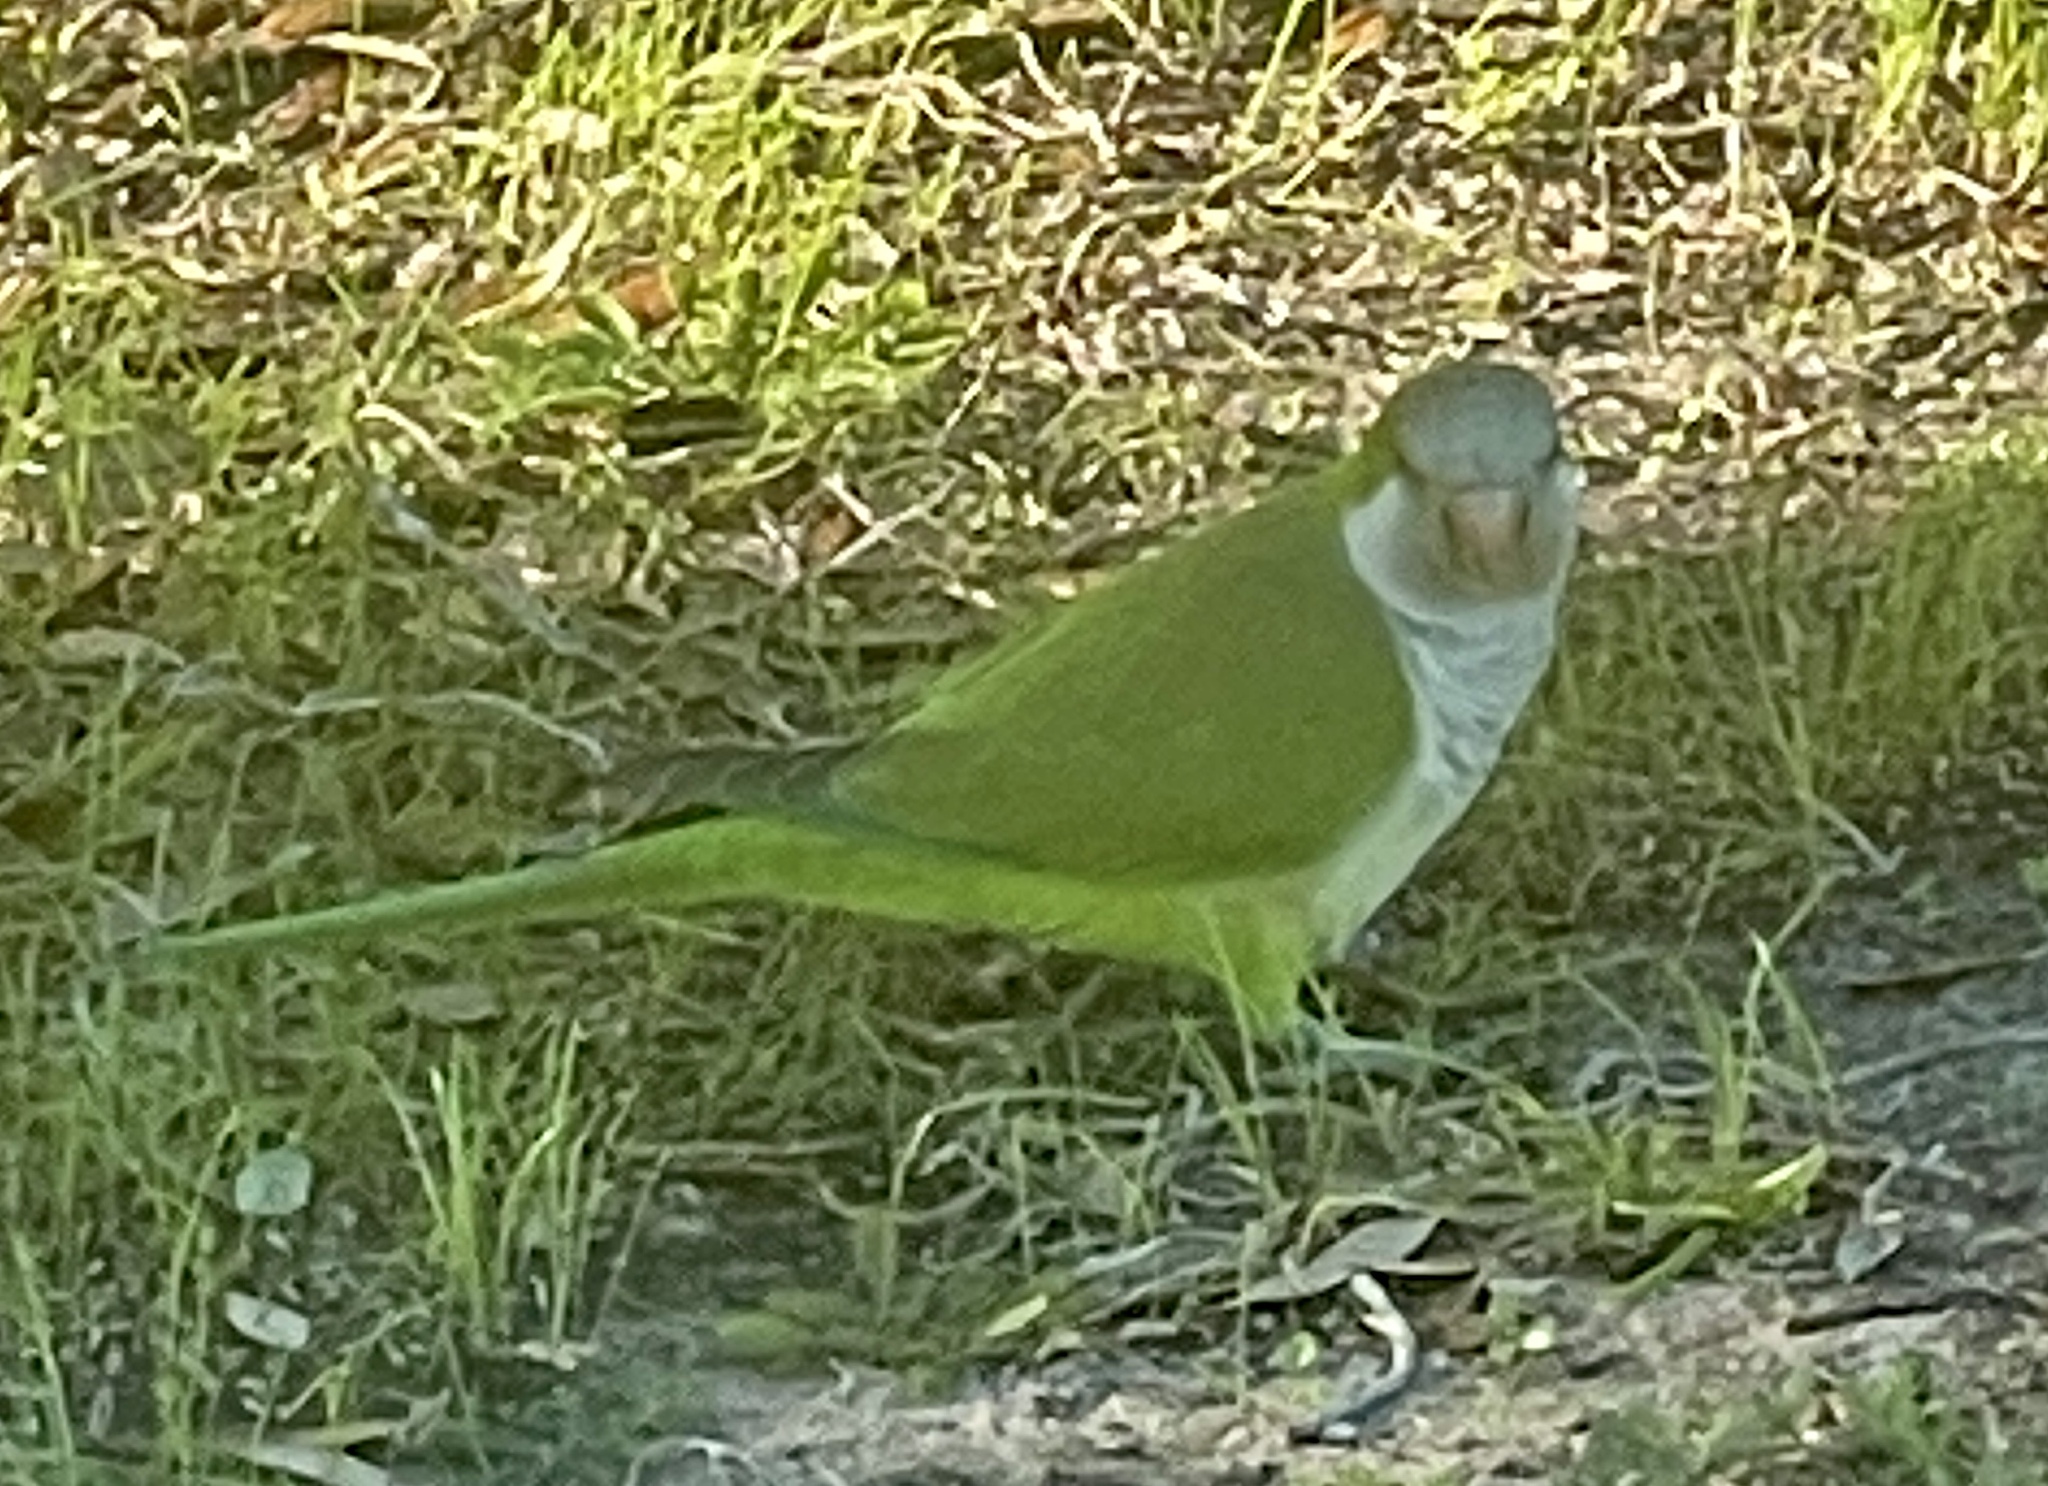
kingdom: Animalia
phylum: Chordata
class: Aves
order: Psittaciformes
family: Psittacidae
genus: Myiopsitta
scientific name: Myiopsitta monachus
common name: Monk parakeet
